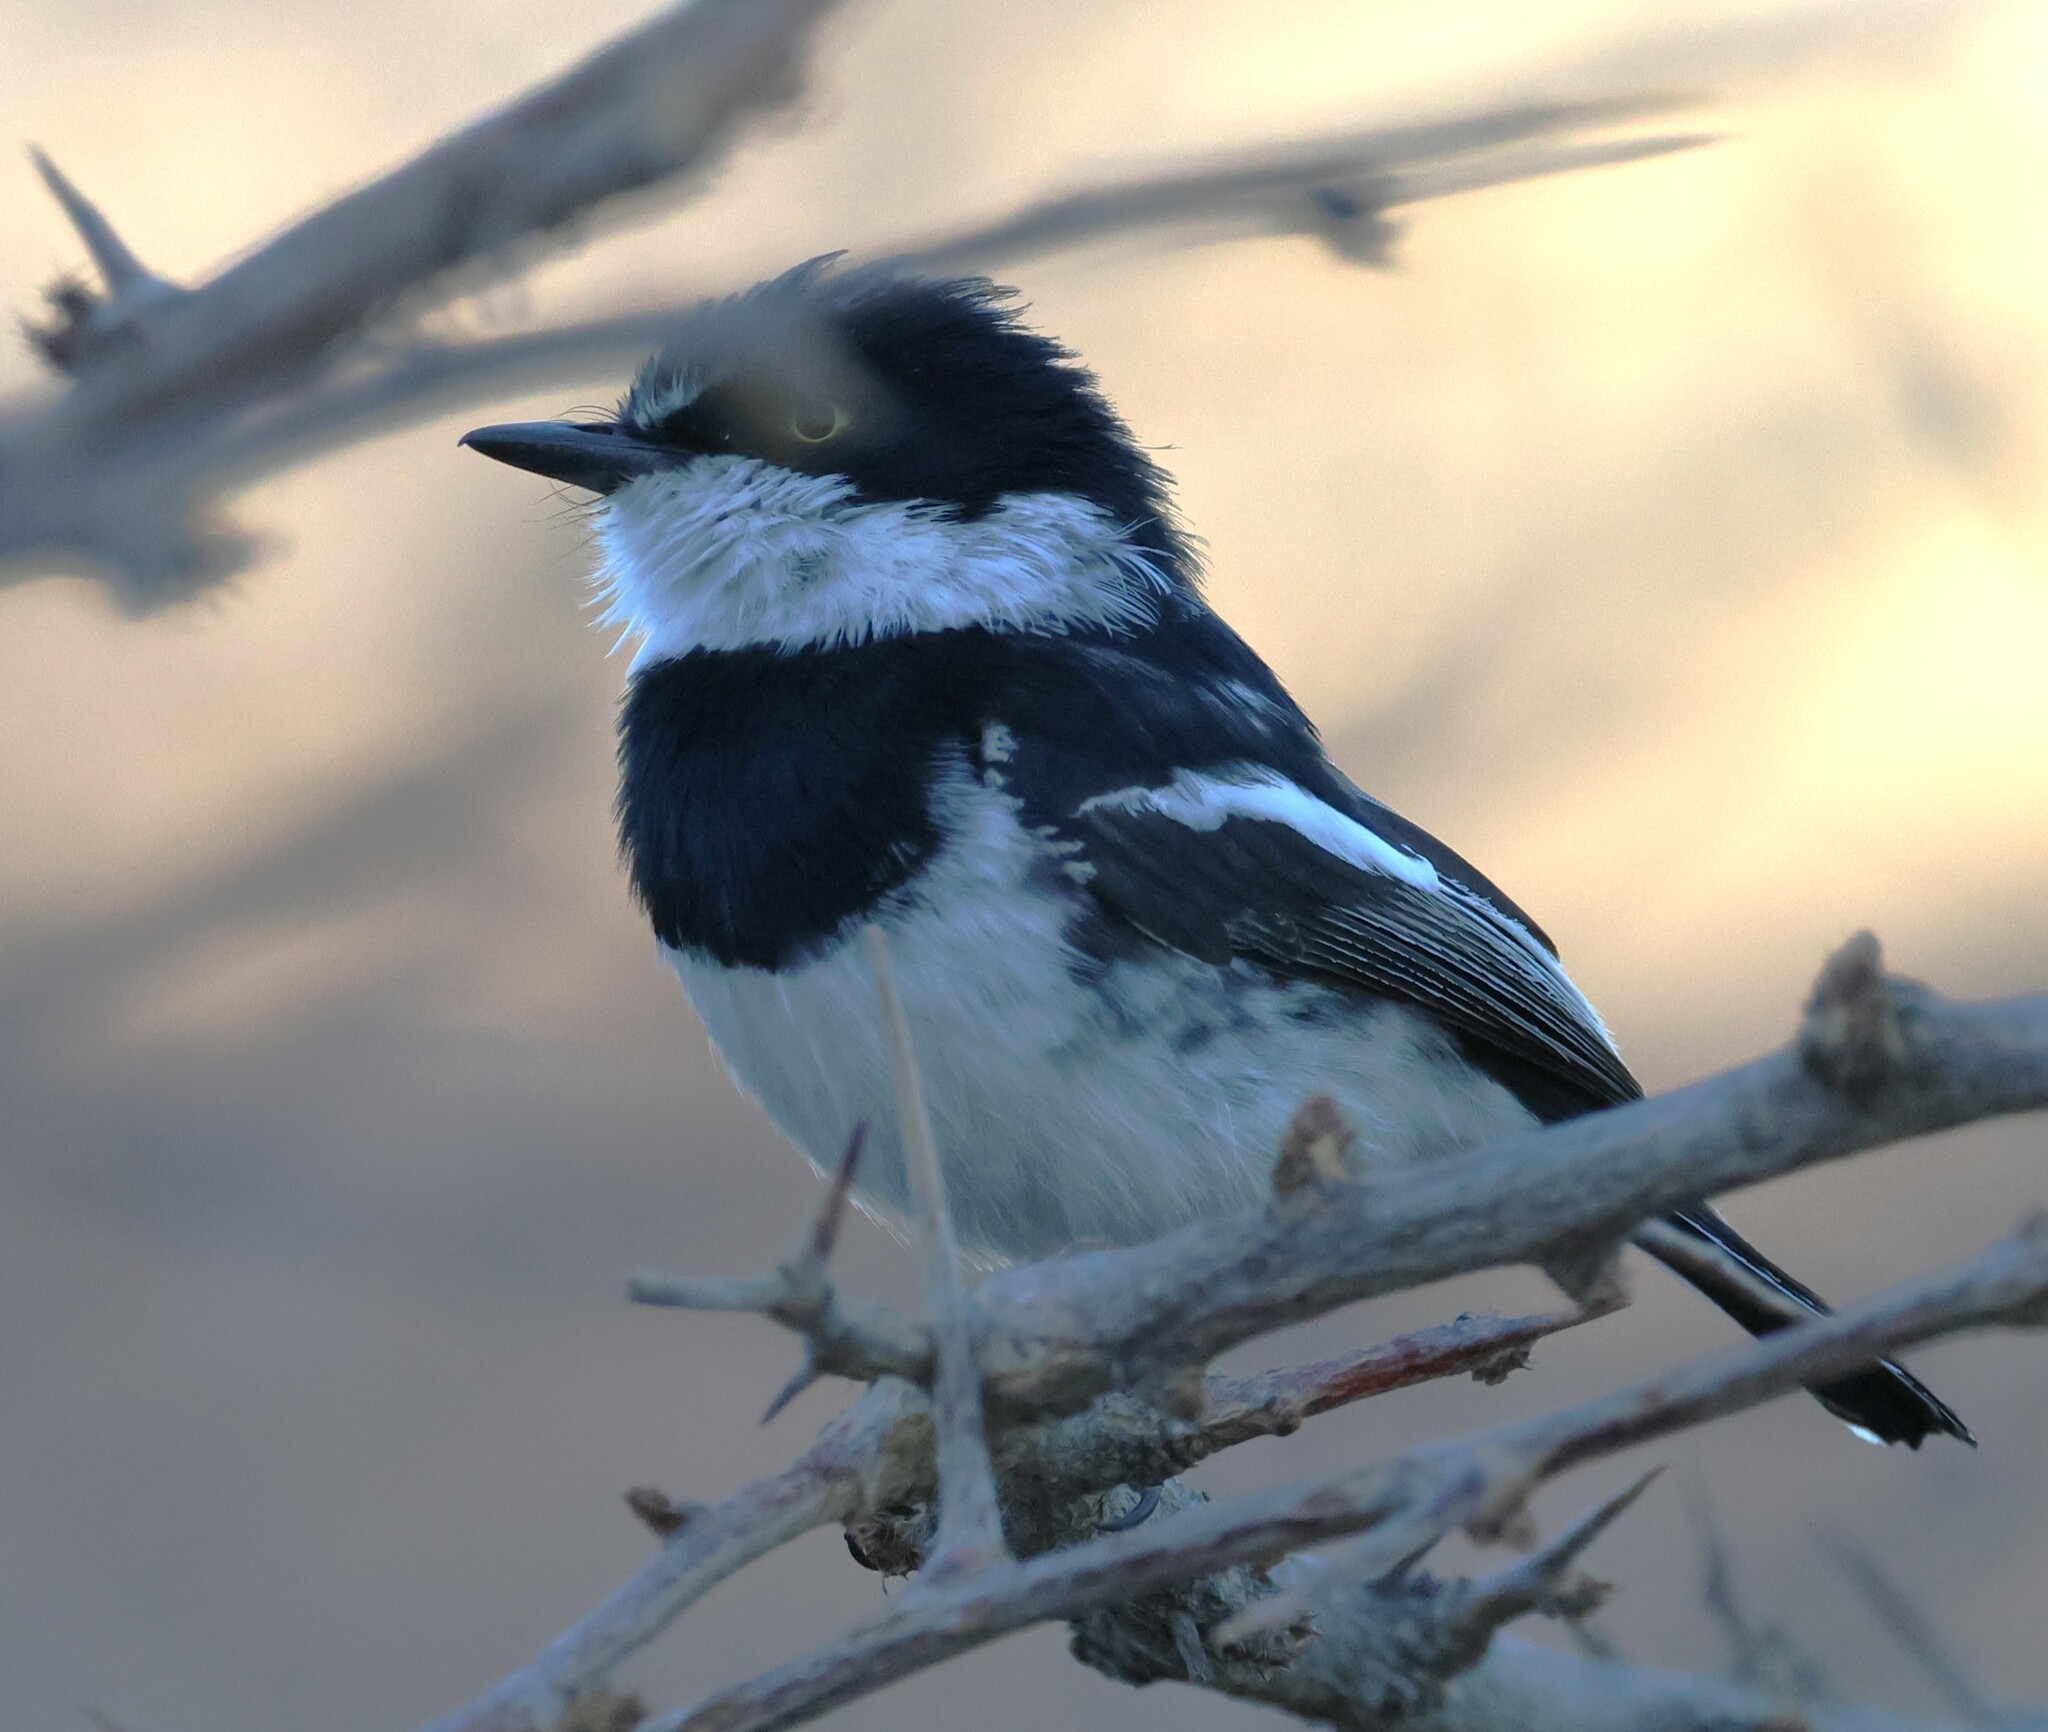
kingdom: Animalia
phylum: Chordata
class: Aves
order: Passeriformes
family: Platysteiridae
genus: Batis
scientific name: Batis pririt
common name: Pririt batis
